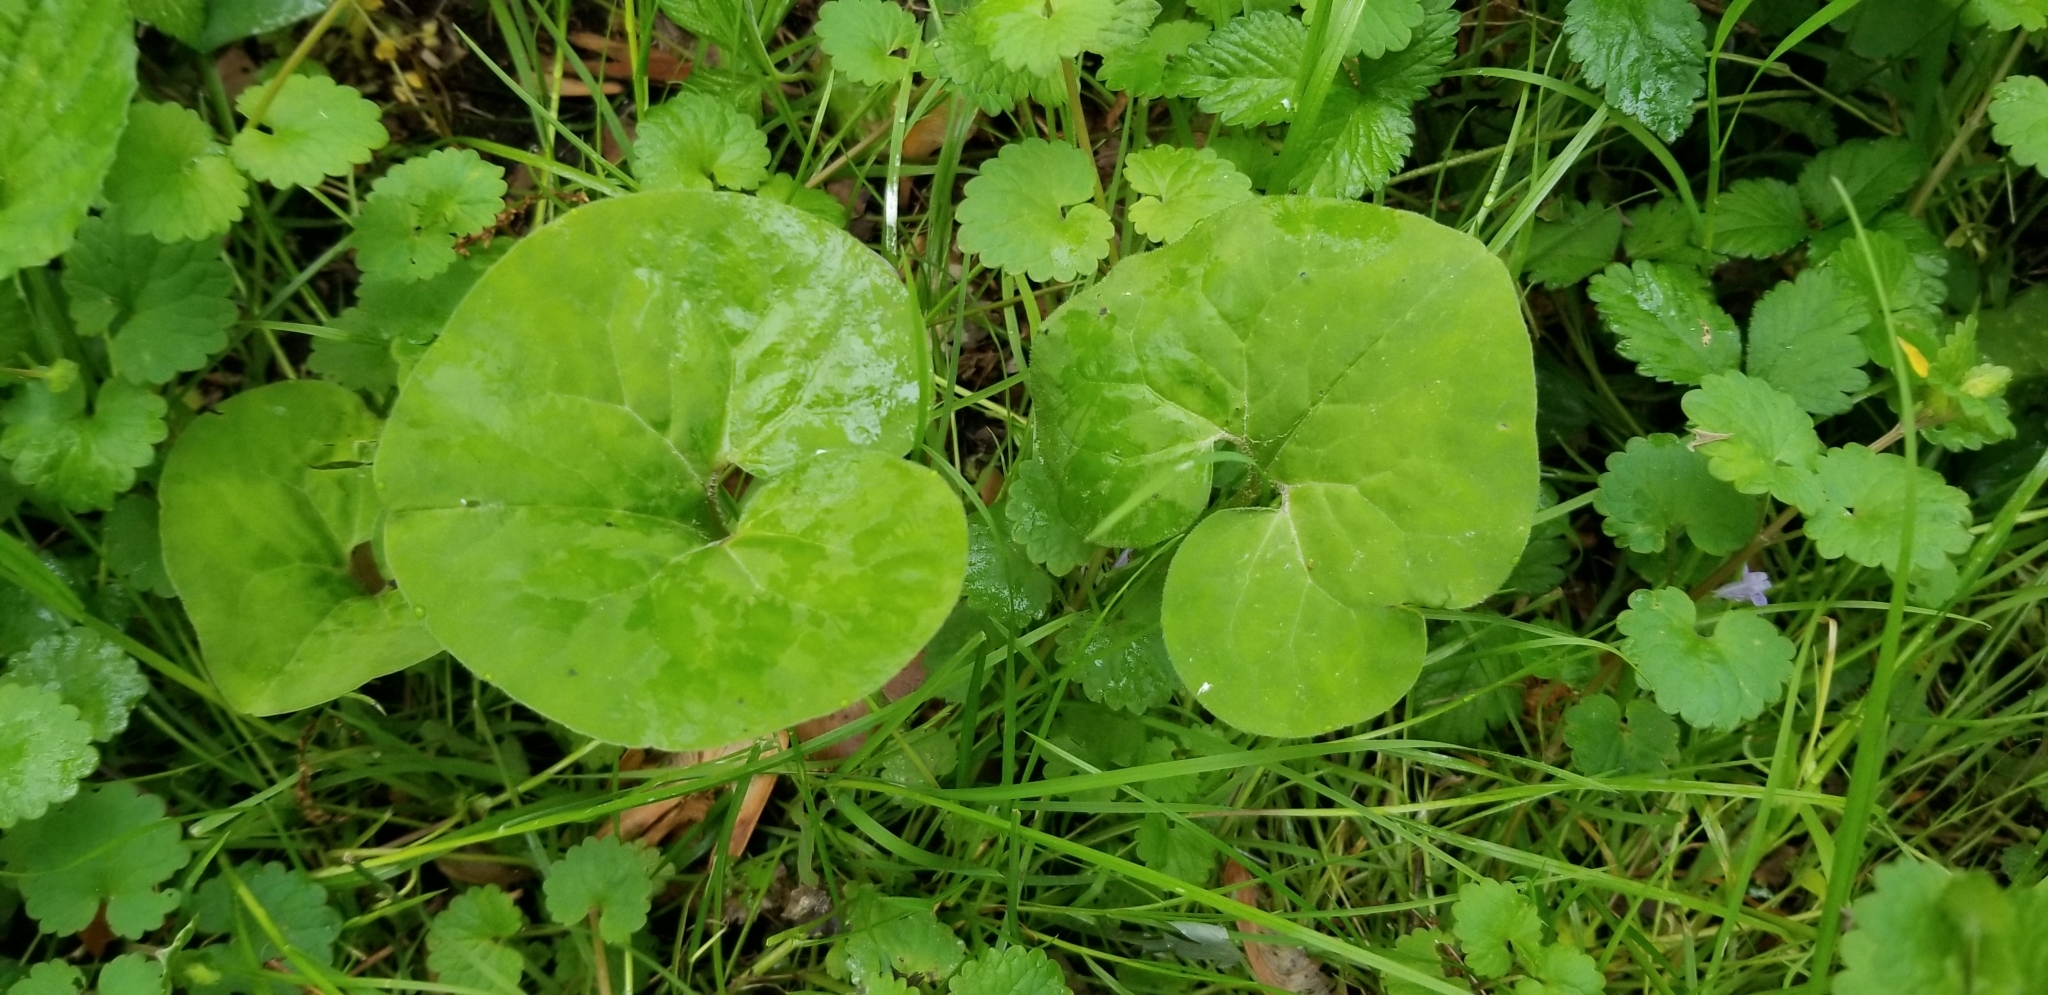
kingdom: Plantae
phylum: Tracheophyta
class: Magnoliopsida
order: Piperales
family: Aristolochiaceae
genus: Asarum
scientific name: Asarum canadense
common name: Wild ginger
